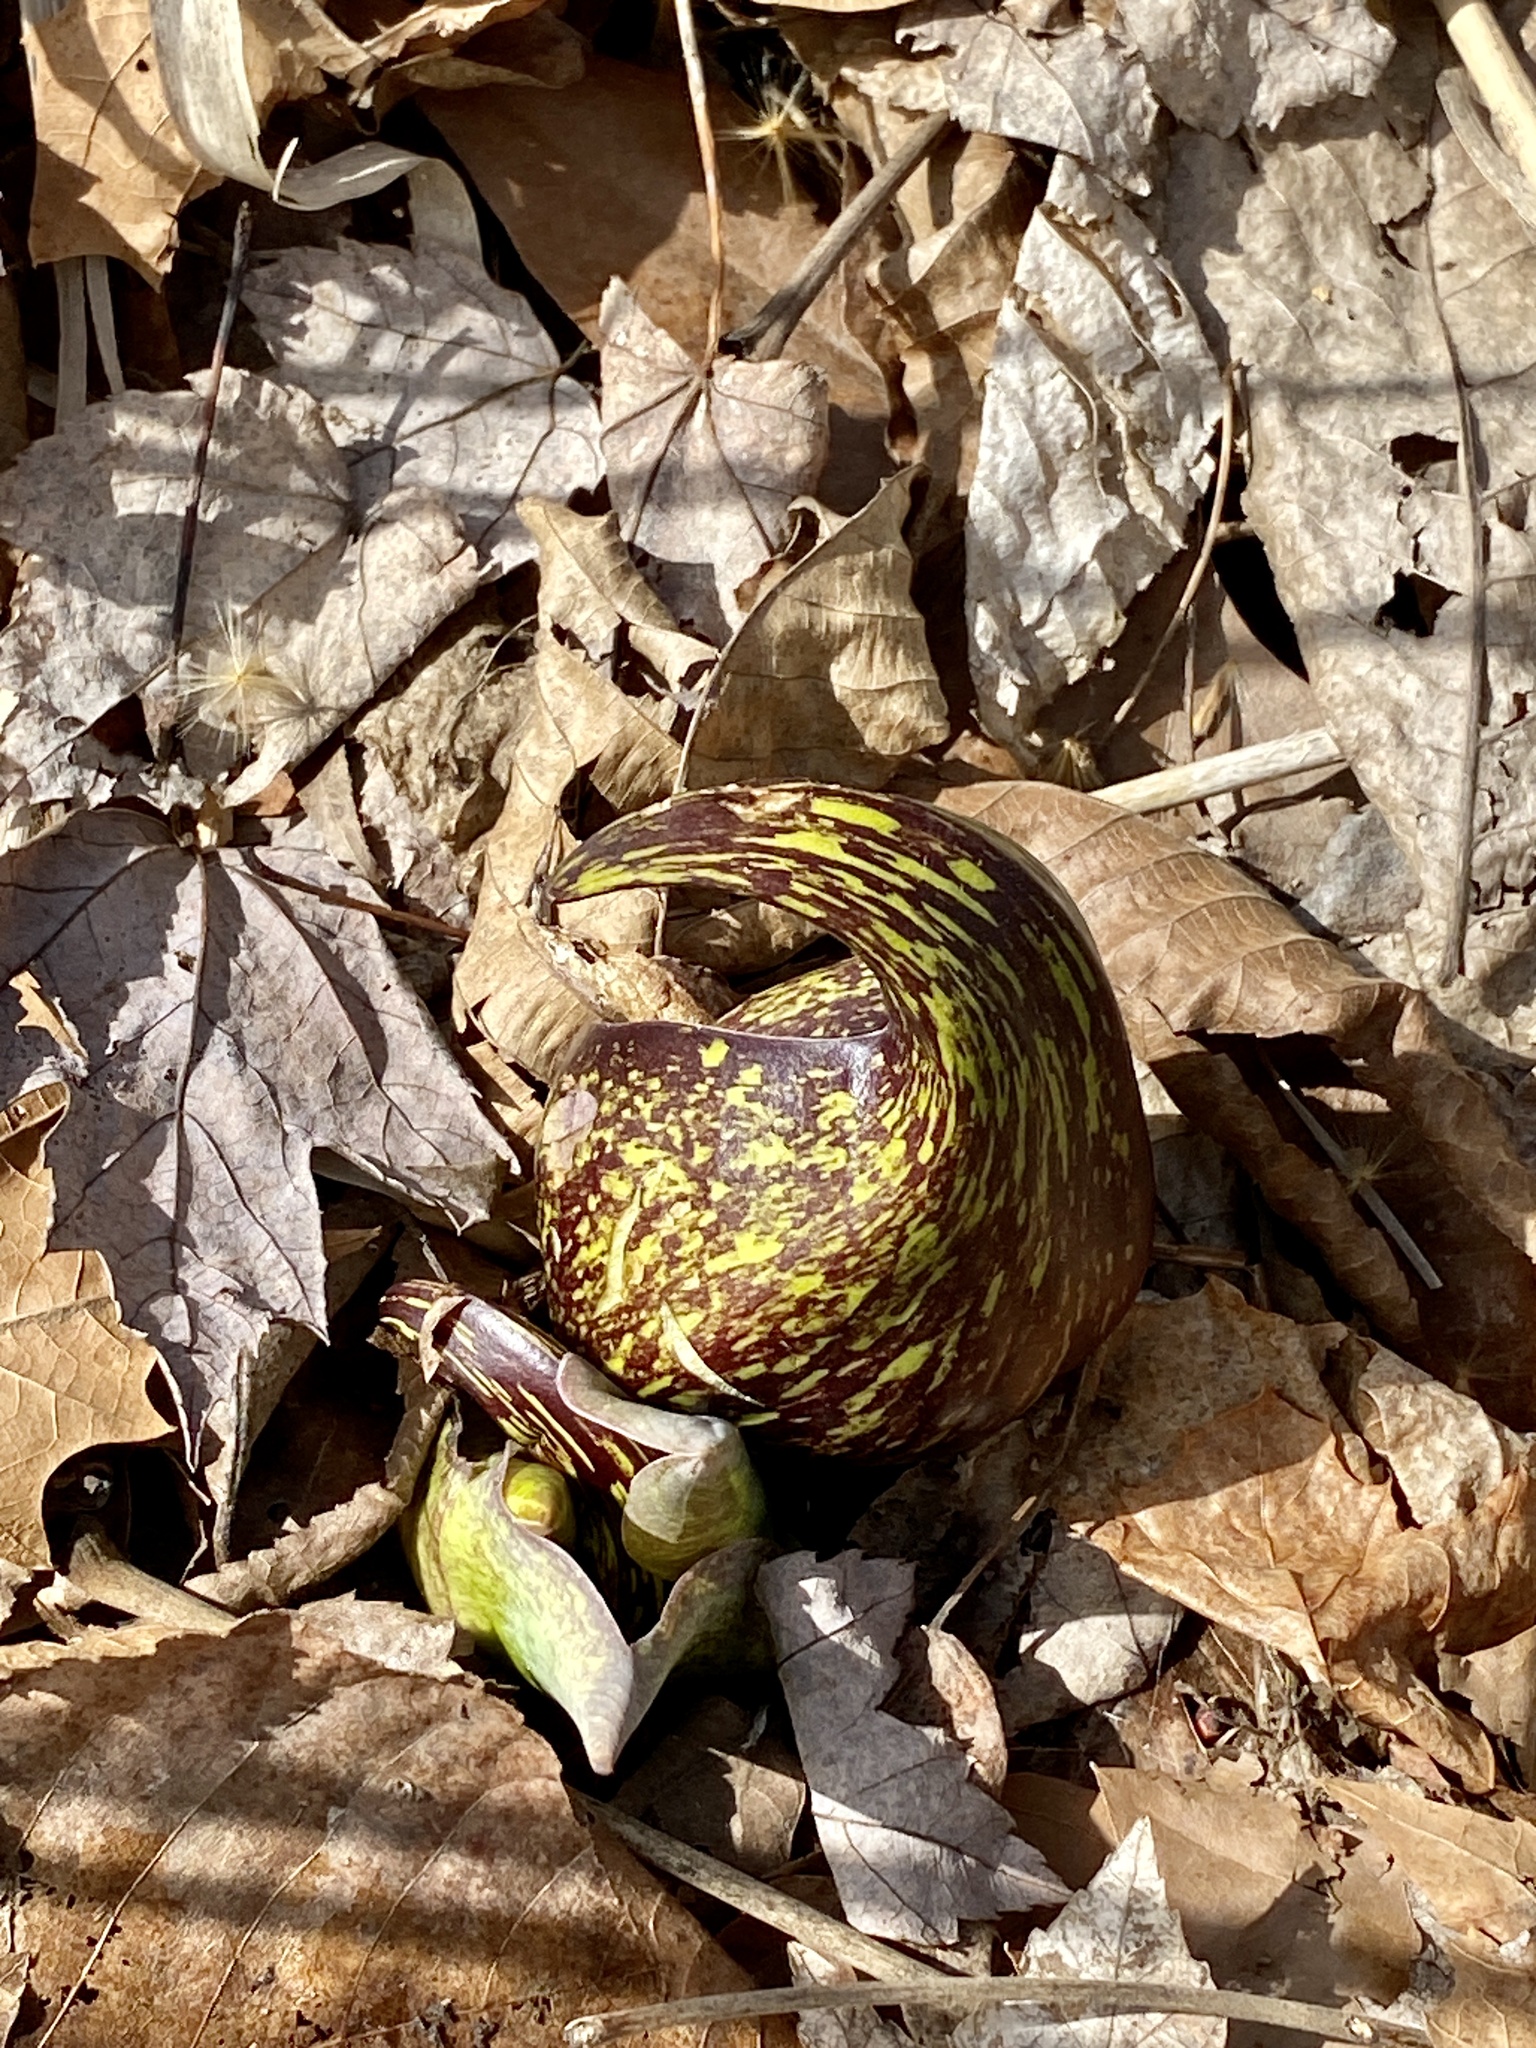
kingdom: Plantae
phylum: Tracheophyta
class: Liliopsida
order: Alismatales
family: Araceae
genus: Symplocarpus
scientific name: Symplocarpus foetidus
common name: Eastern skunk cabbage
